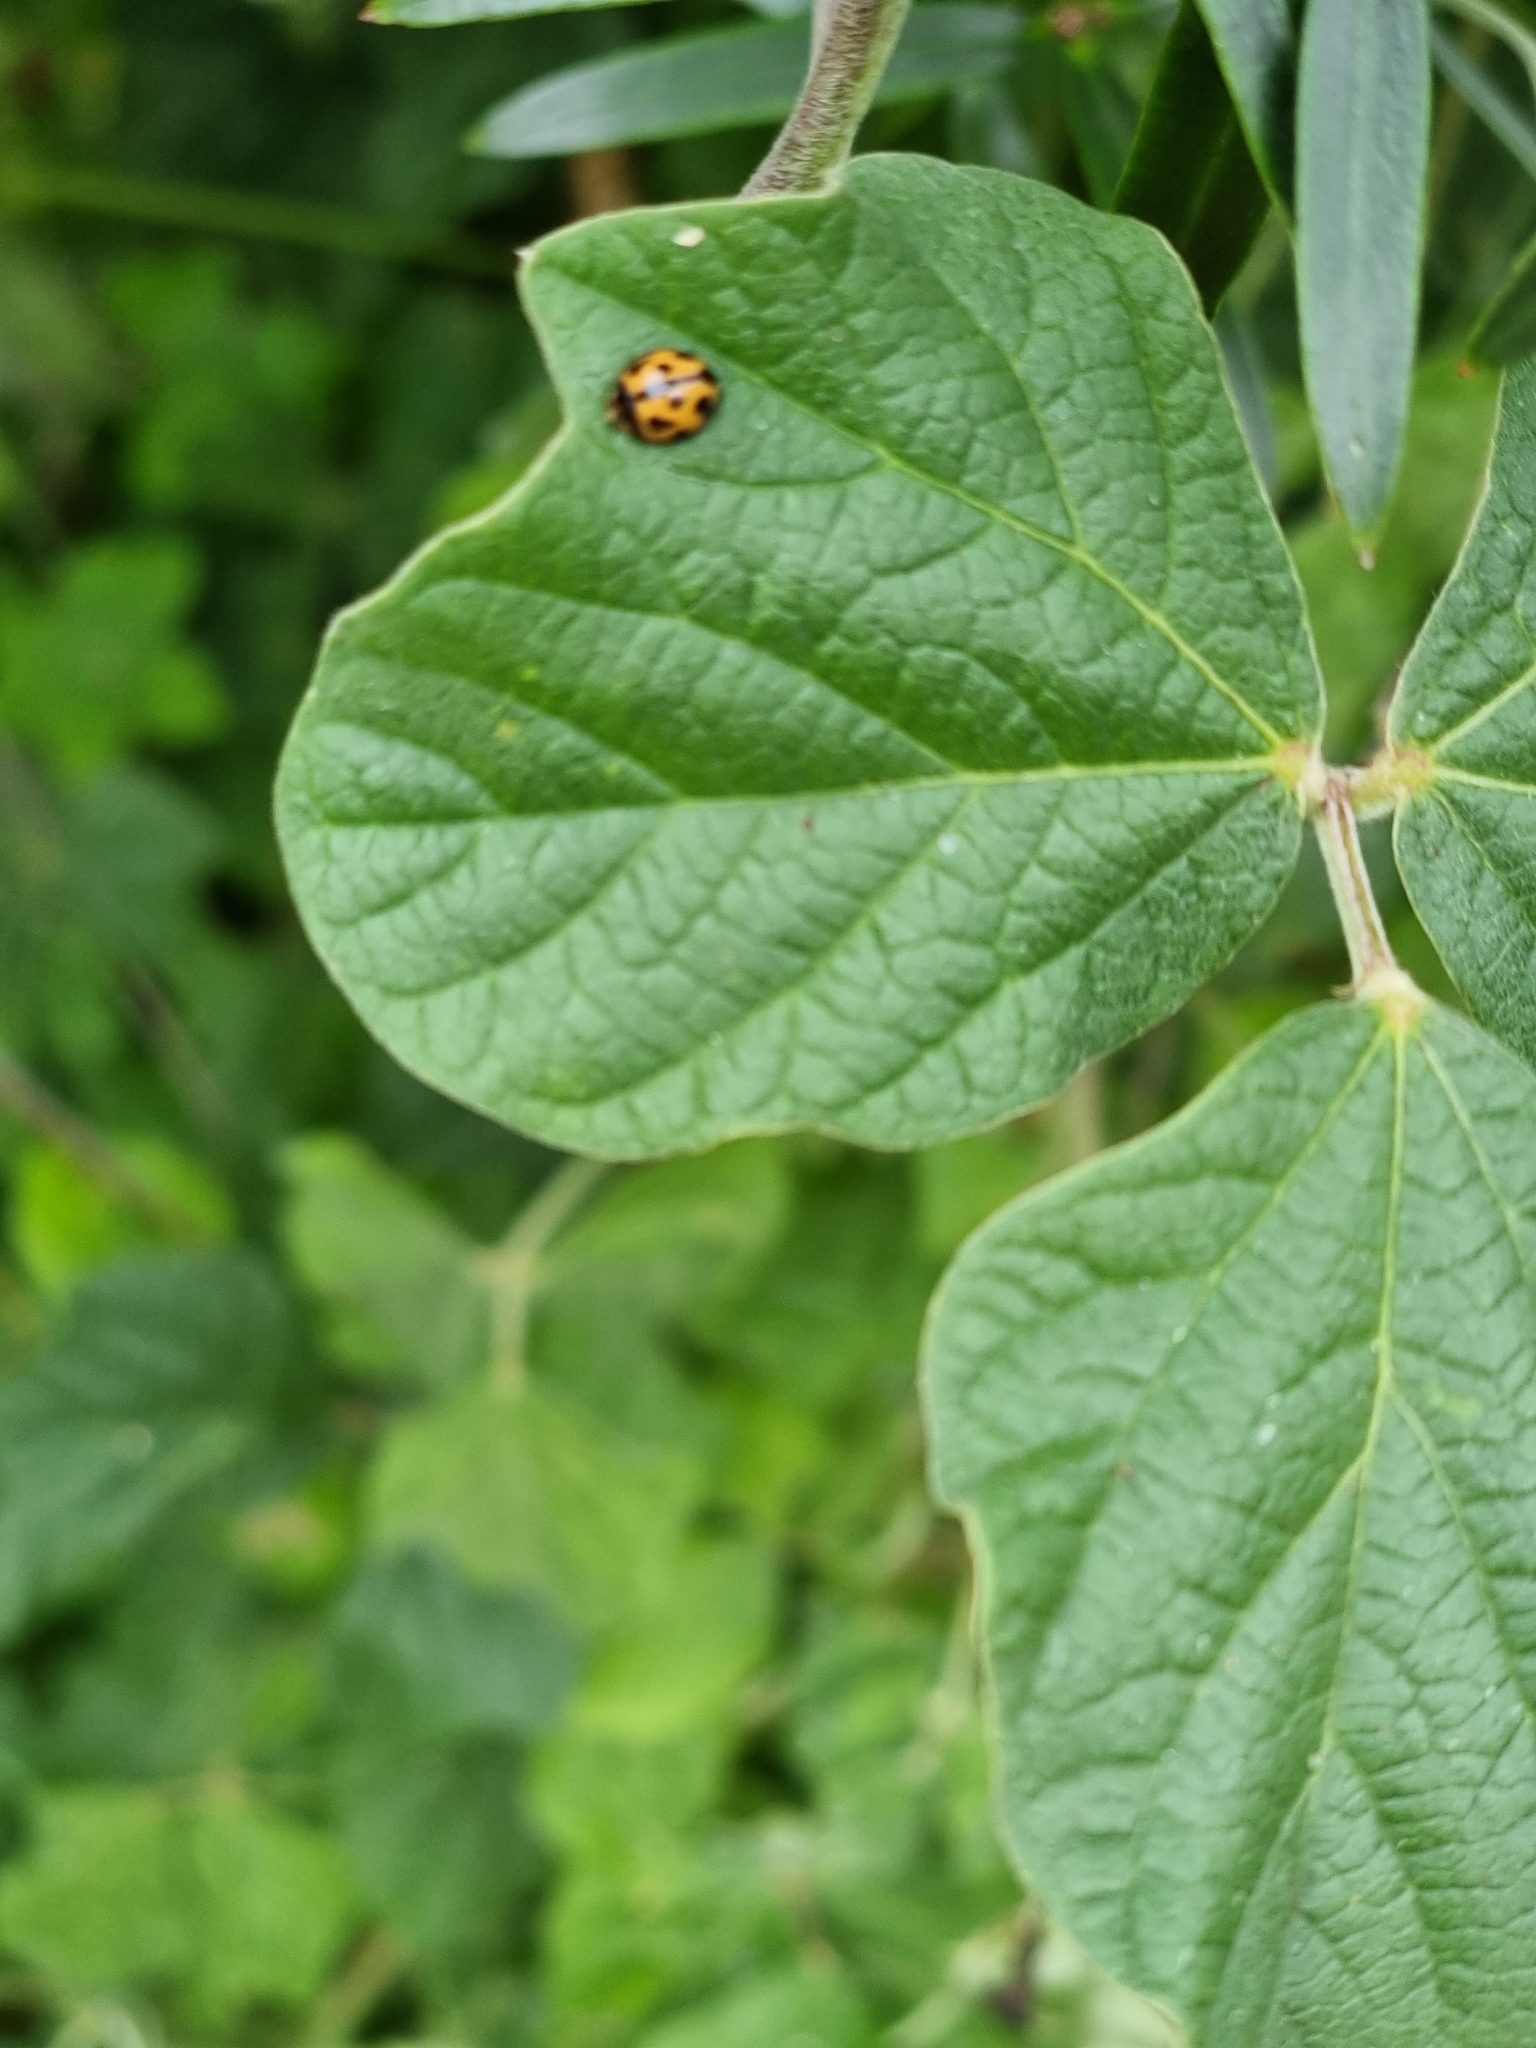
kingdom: Animalia
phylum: Arthropoda
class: Insecta
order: Coleoptera
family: Coccinellidae
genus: Coelophora
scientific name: Coelophora inaequalis
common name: Common australian lady beetle
